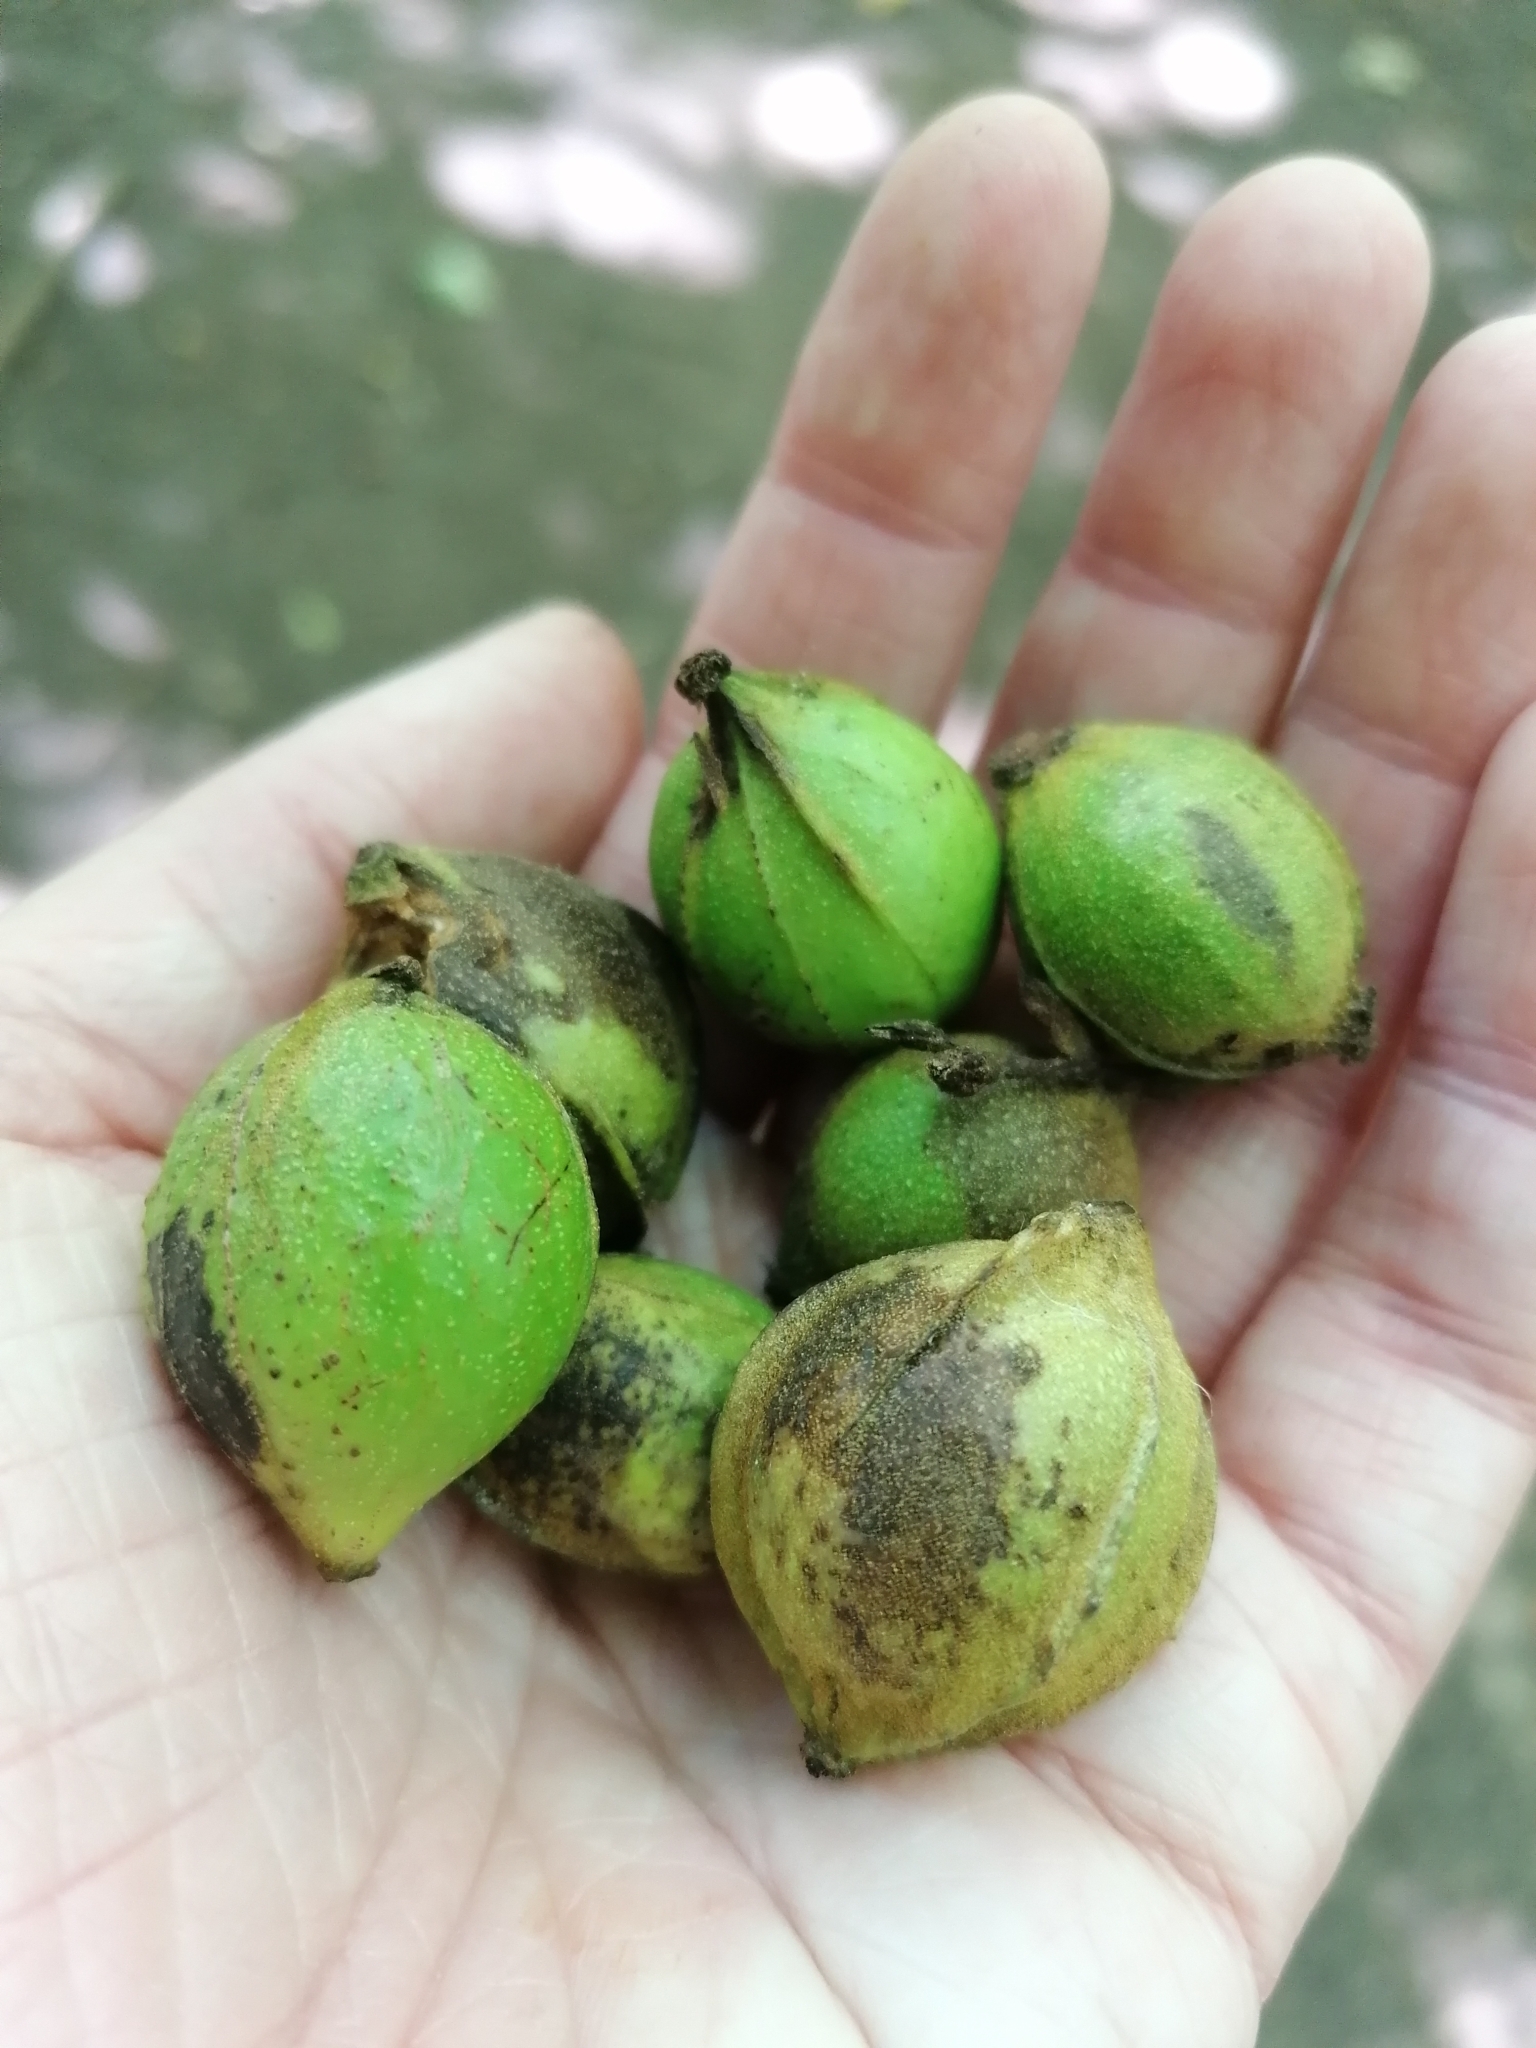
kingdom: Plantae
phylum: Tracheophyta
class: Magnoliopsida
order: Fagales
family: Juglandaceae
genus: Carya
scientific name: Carya cordiformis
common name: Bitternut hickory
